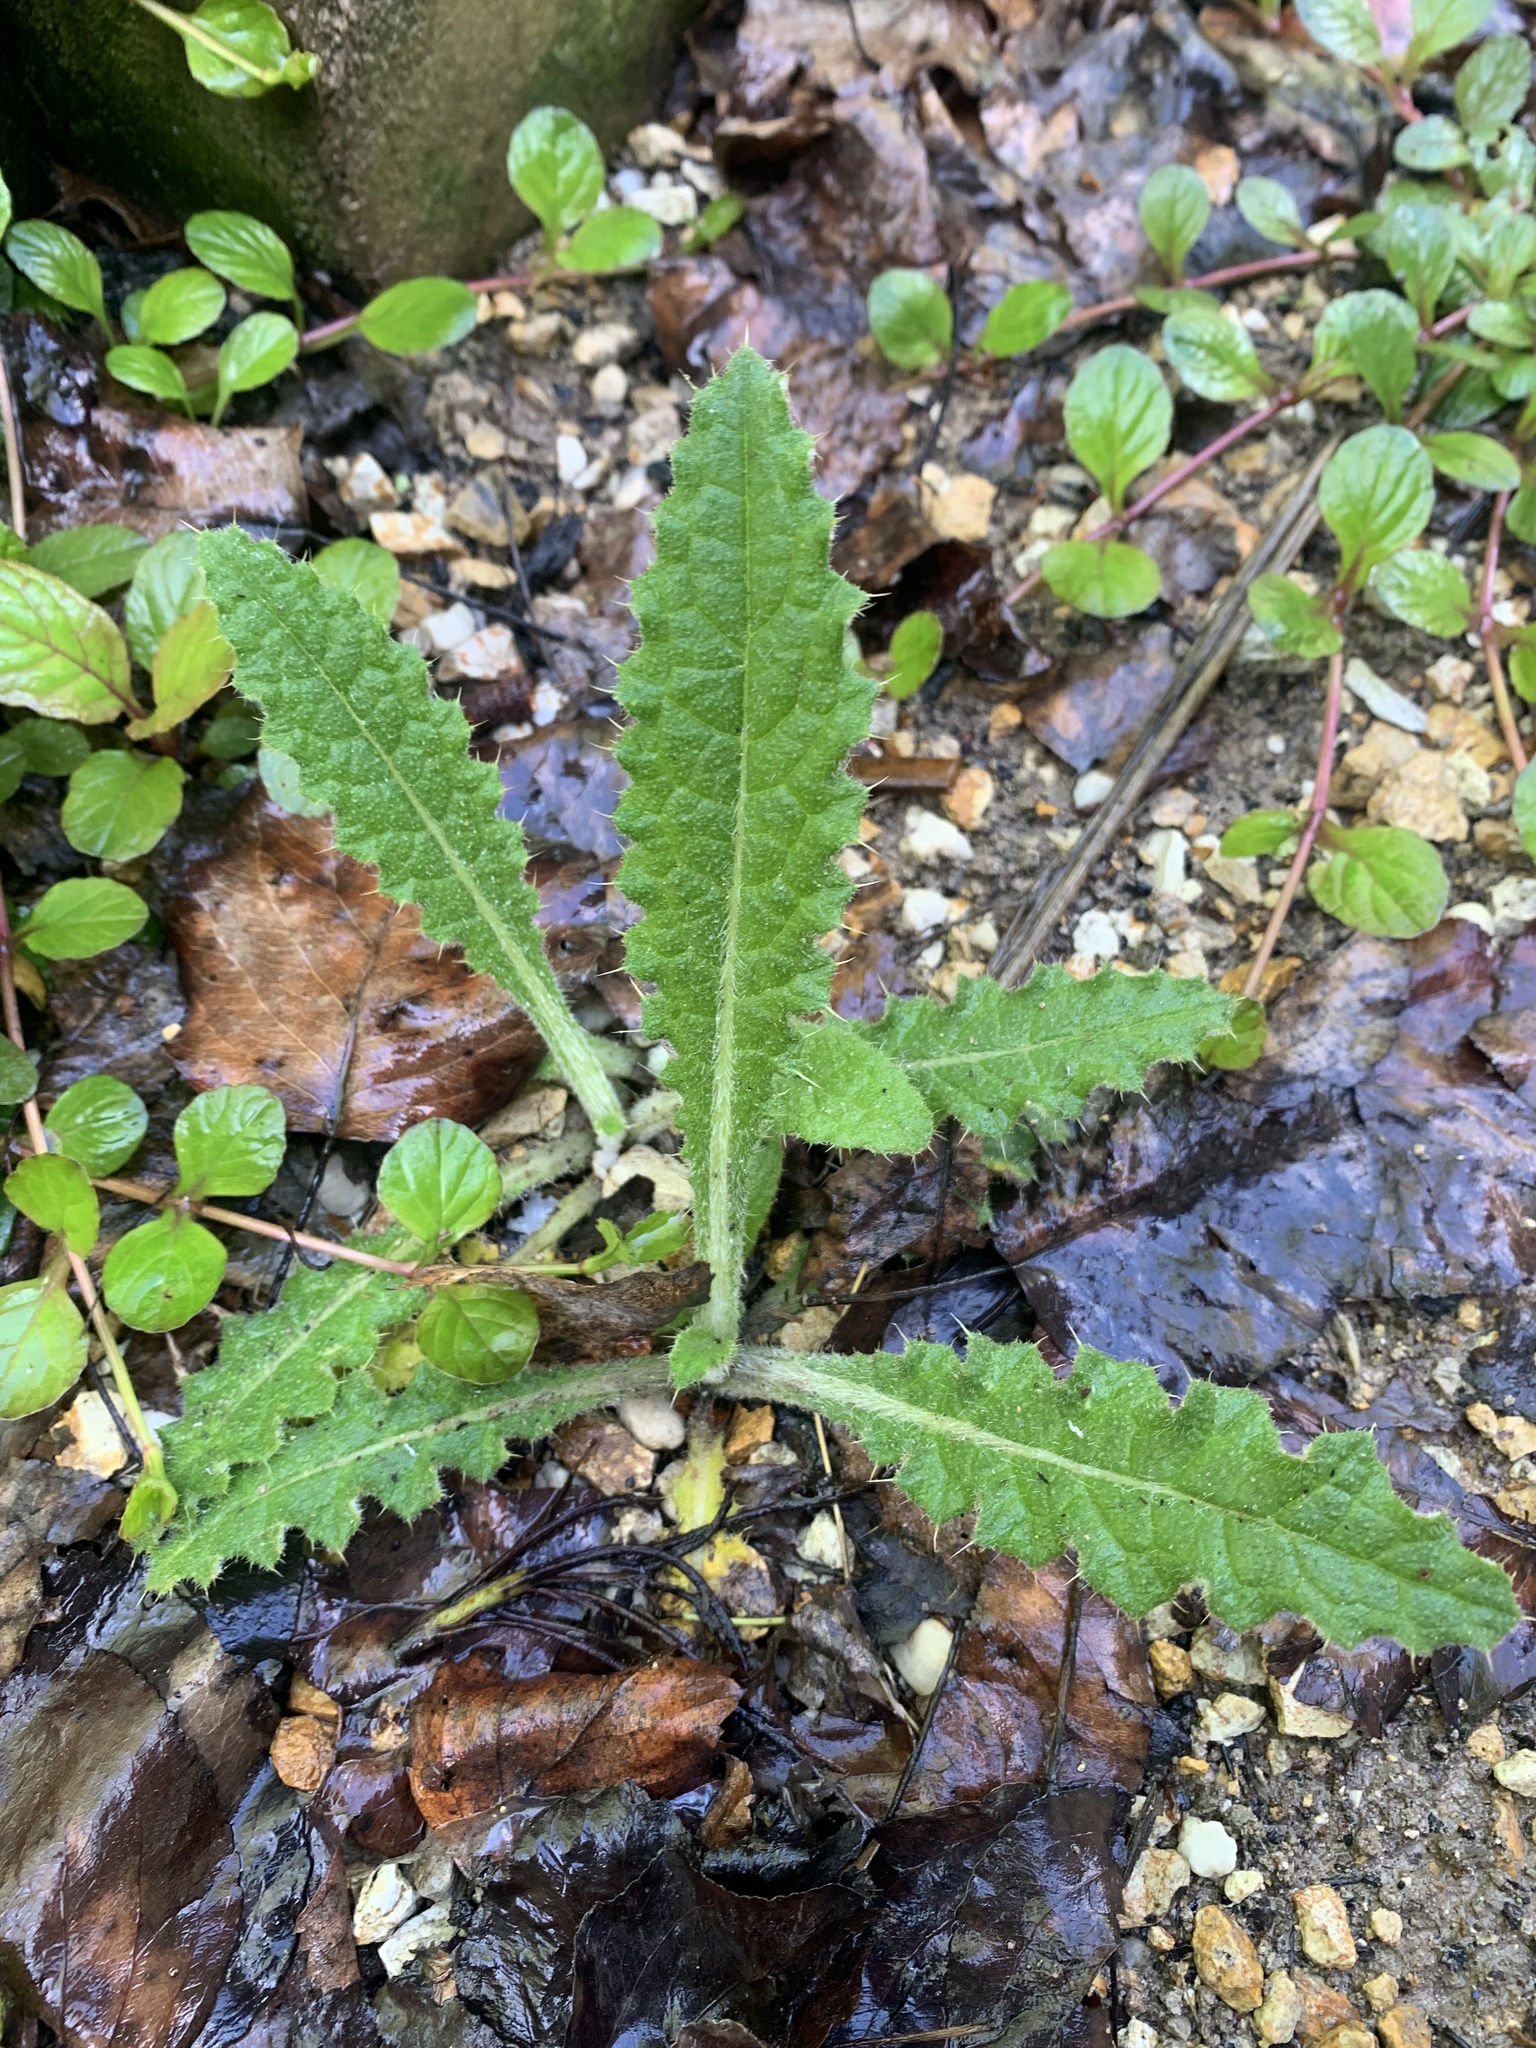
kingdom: Plantae
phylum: Tracheophyta
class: Magnoliopsida
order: Asterales
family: Asteraceae
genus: Cirsium
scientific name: Cirsium vulgare
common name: Bull thistle
